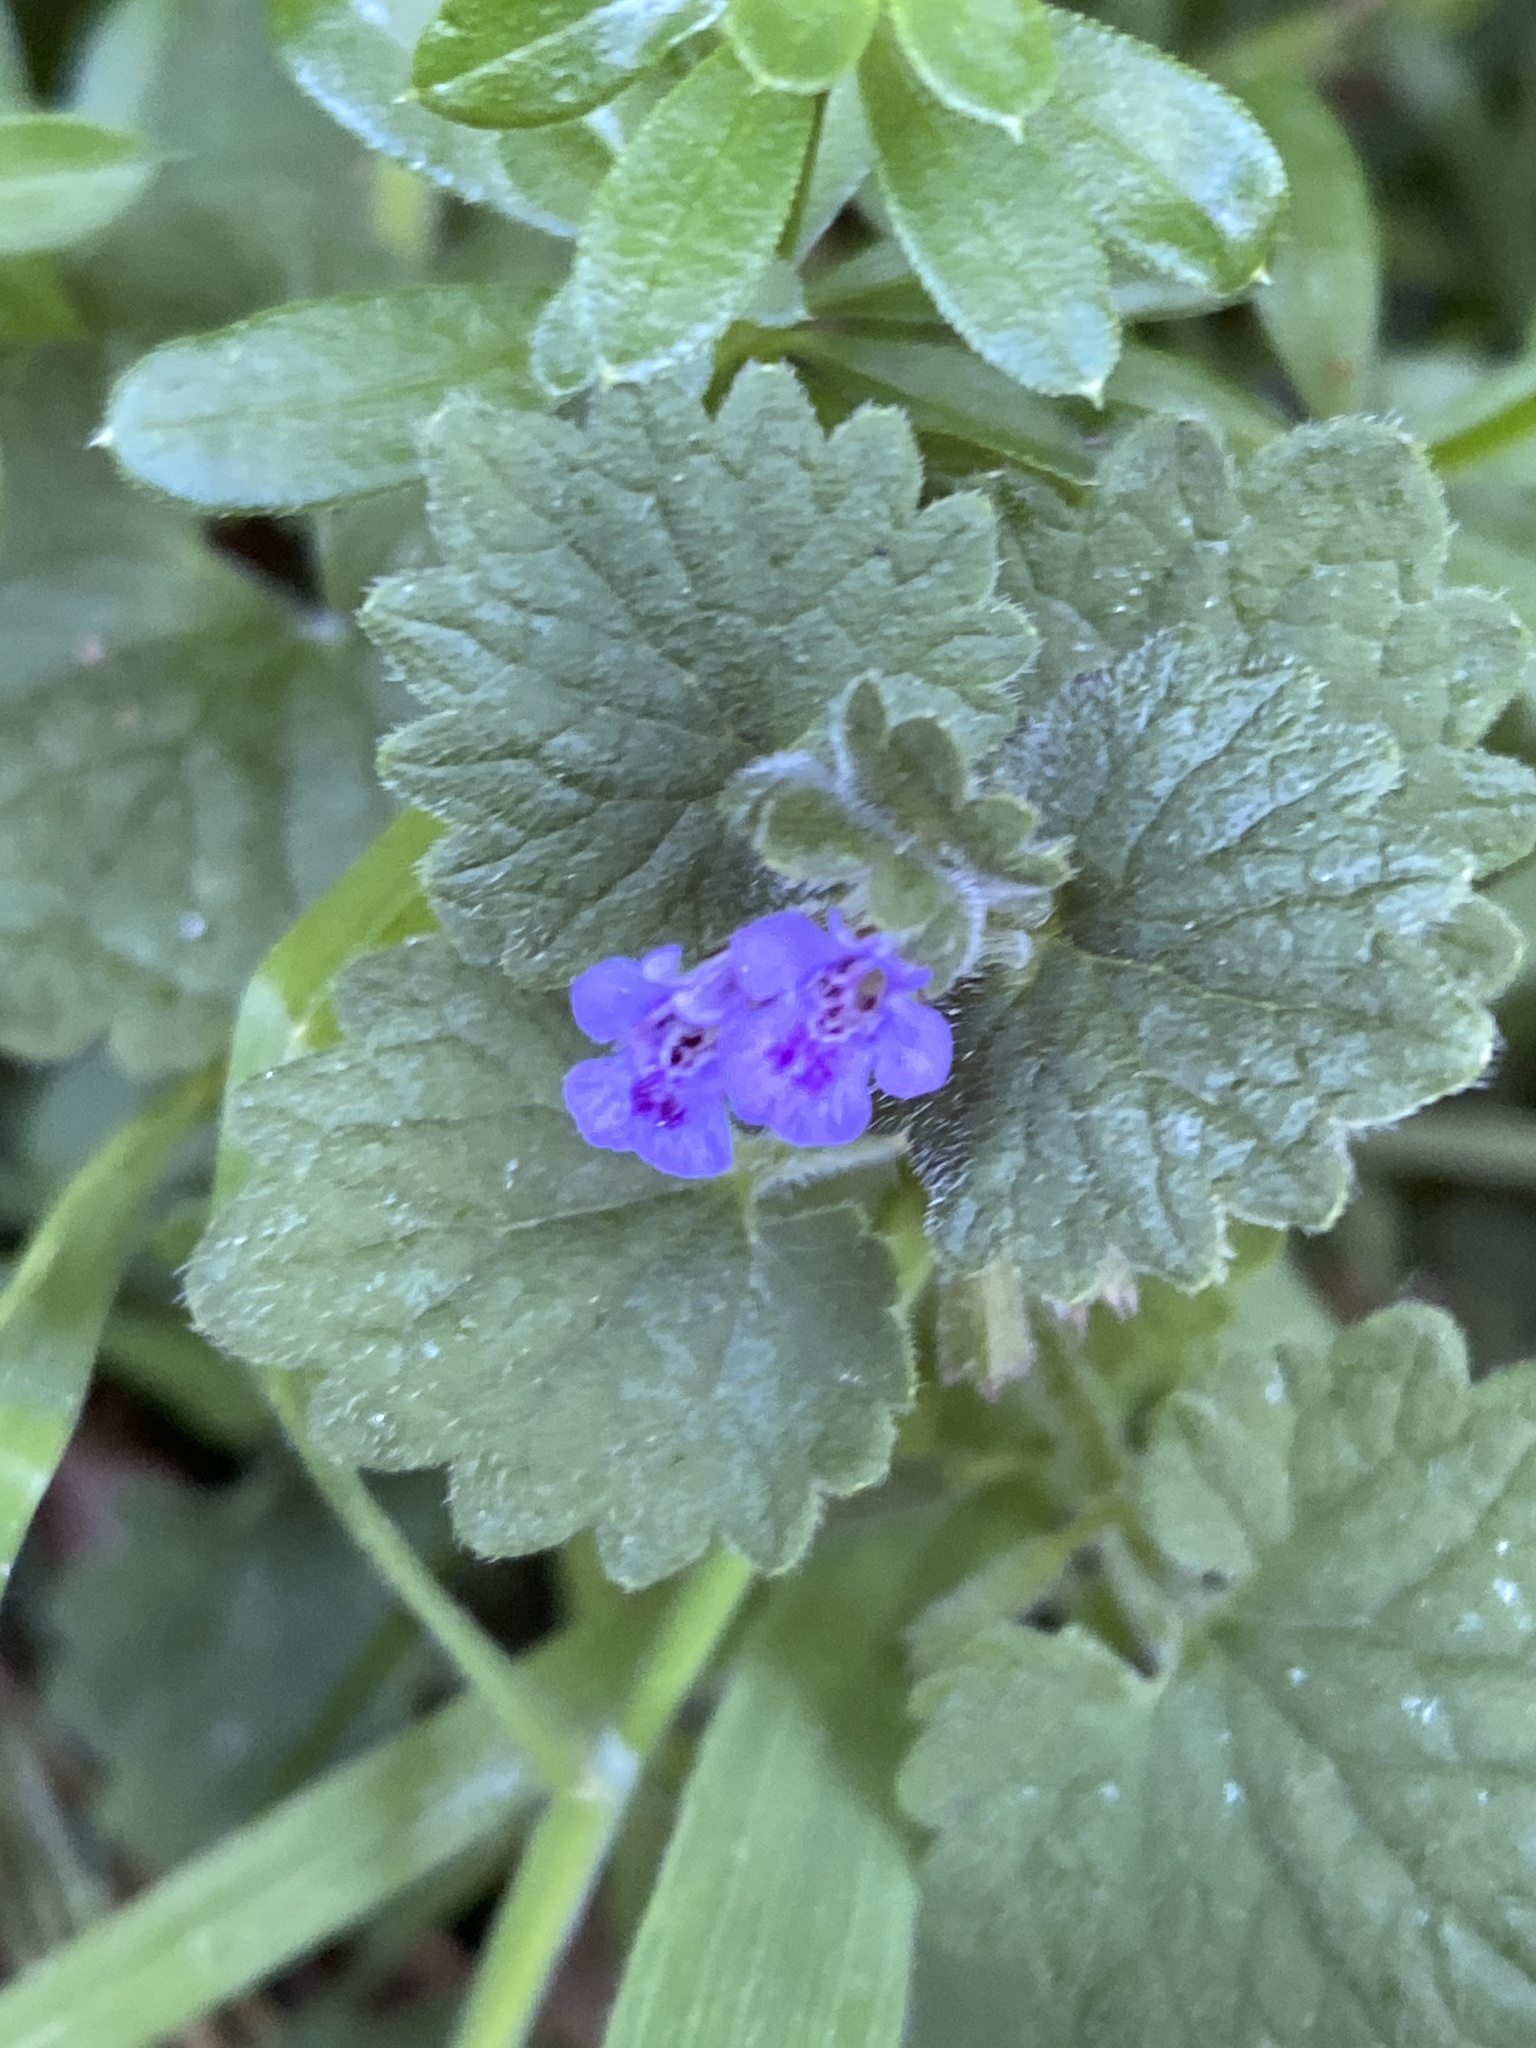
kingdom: Plantae
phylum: Tracheophyta
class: Magnoliopsida
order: Lamiales
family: Lamiaceae
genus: Glechoma
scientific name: Glechoma hederacea
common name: Ground ivy
